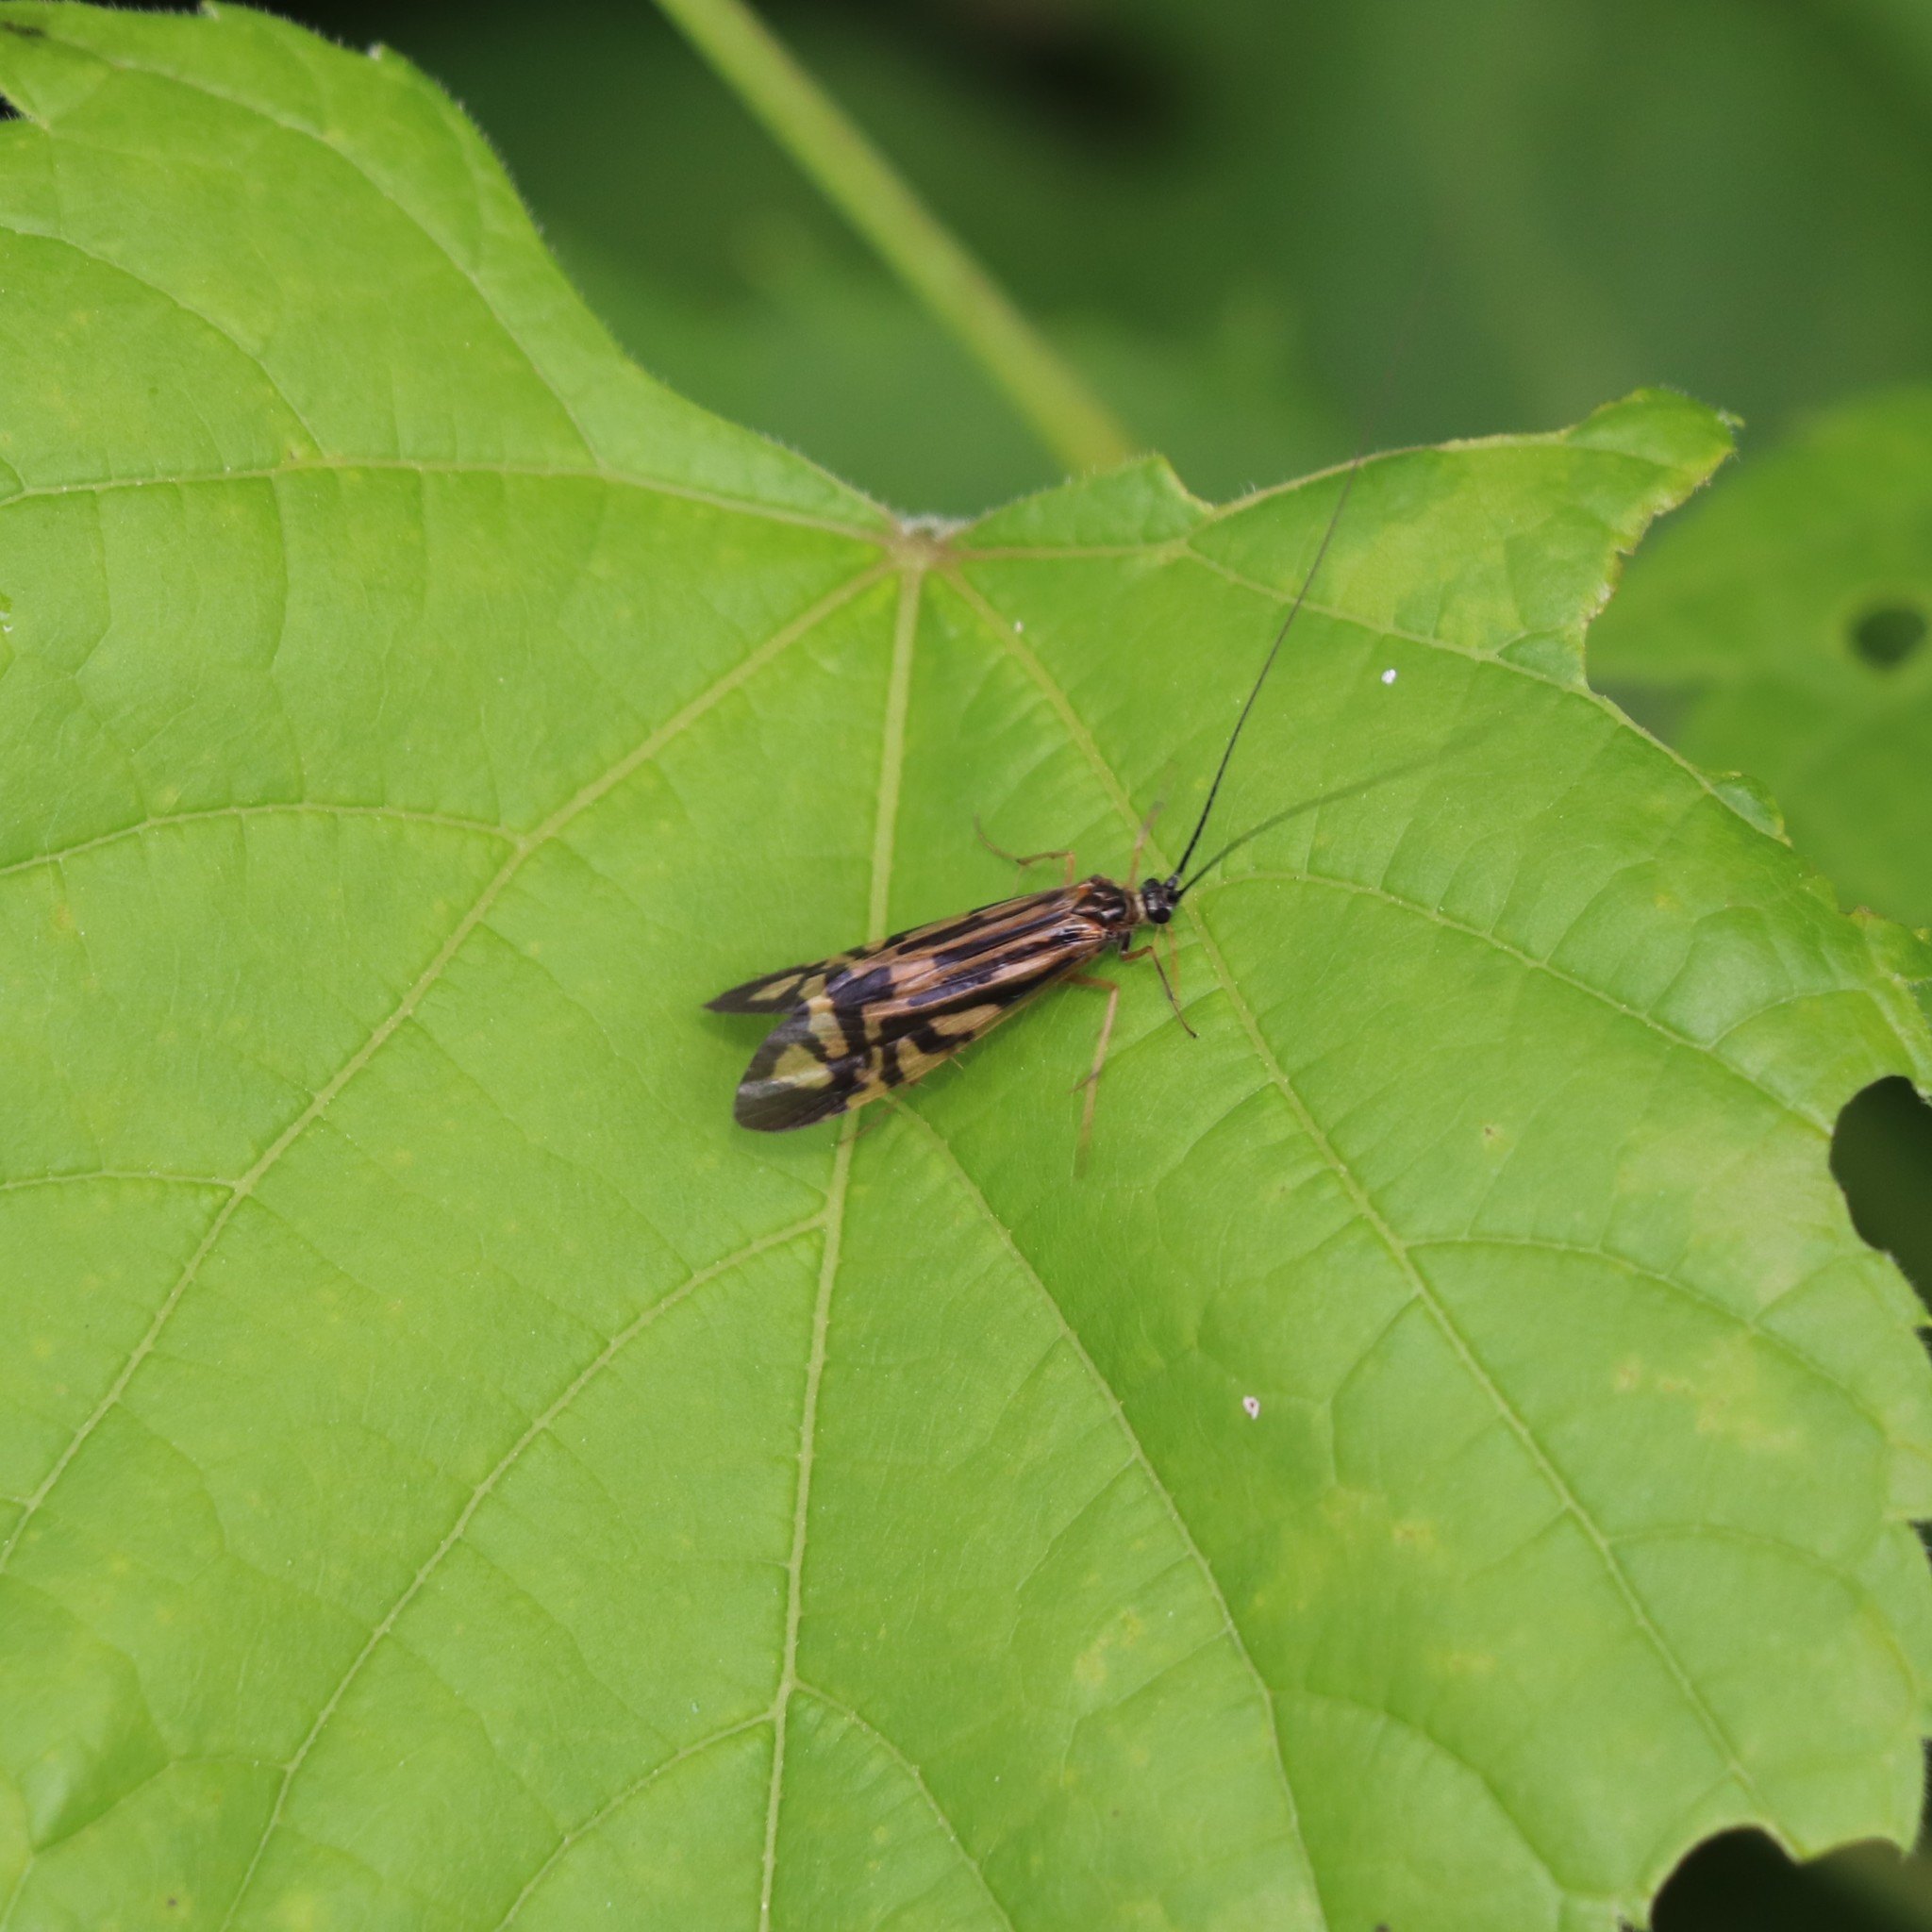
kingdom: Animalia
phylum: Arthropoda
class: Insecta
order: Trichoptera
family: Hydropsychidae
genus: Macrostemum
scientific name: Macrostemum zebratum
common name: Zebra caddisfly
